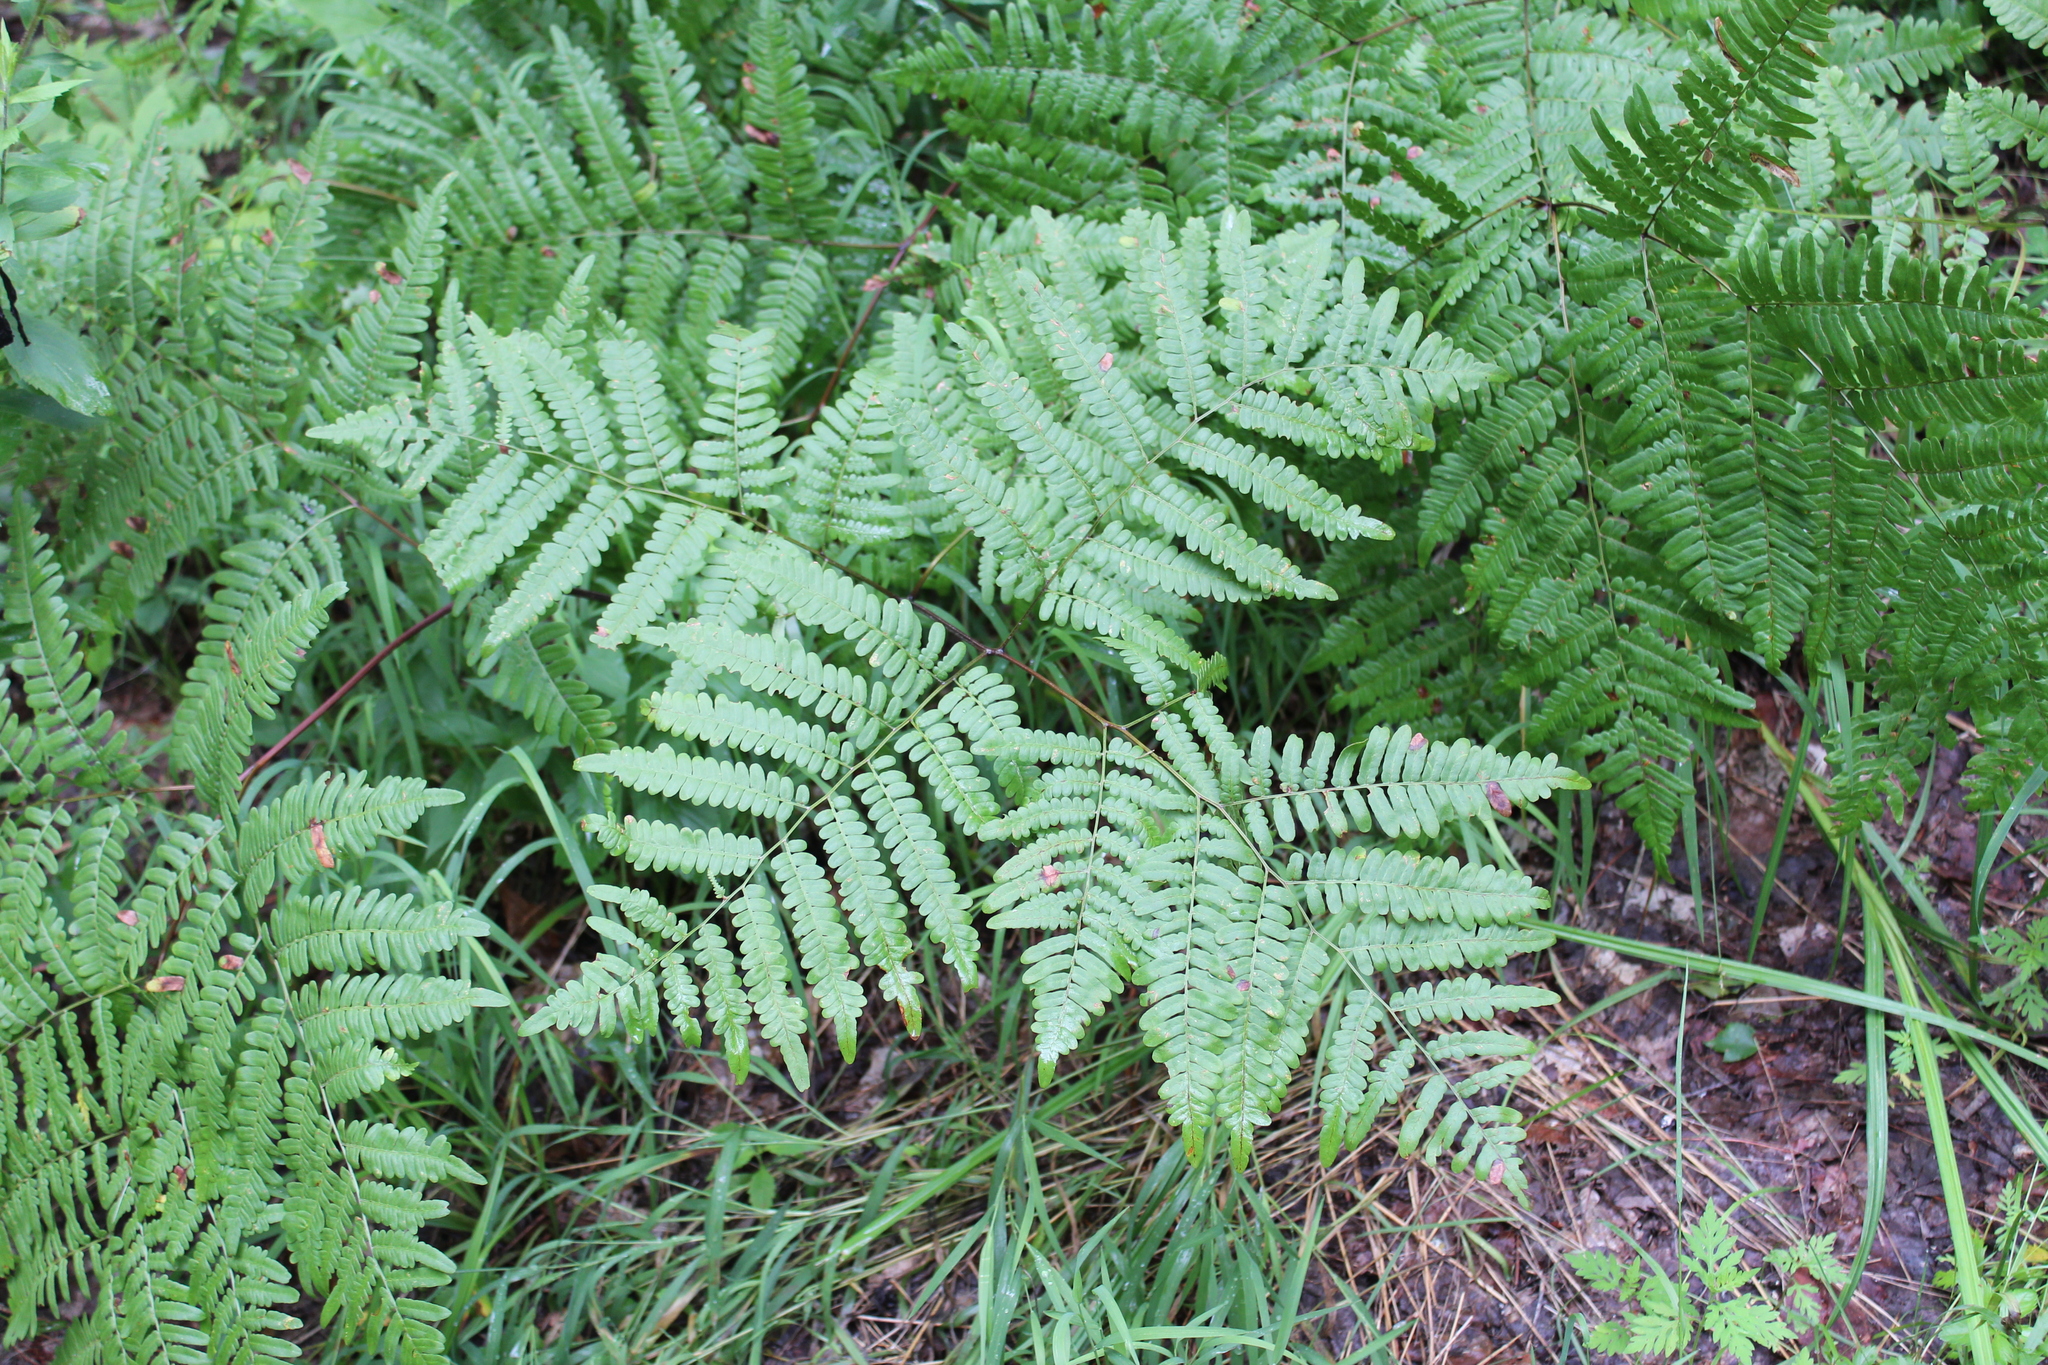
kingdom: Plantae
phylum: Tracheophyta
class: Polypodiopsida
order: Polypodiales
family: Dennstaedtiaceae
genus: Pteridium
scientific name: Pteridium aquilinum
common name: Bracken
